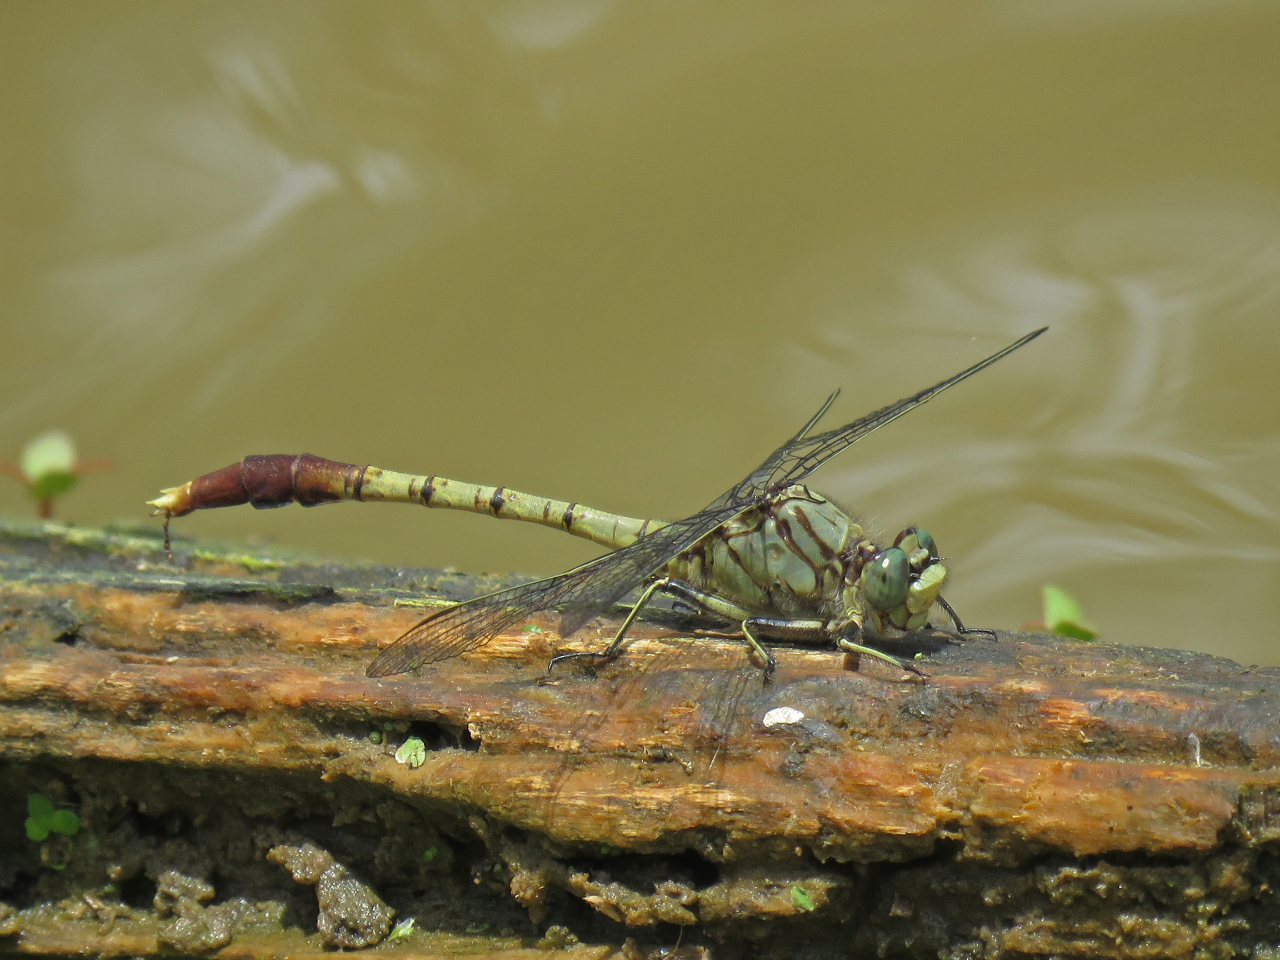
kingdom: Animalia
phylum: Arthropoda
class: Insecta
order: Odonata
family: Gomphidae
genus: Arigomphus
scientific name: Arigomphus submedianus
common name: Jade clubtail
